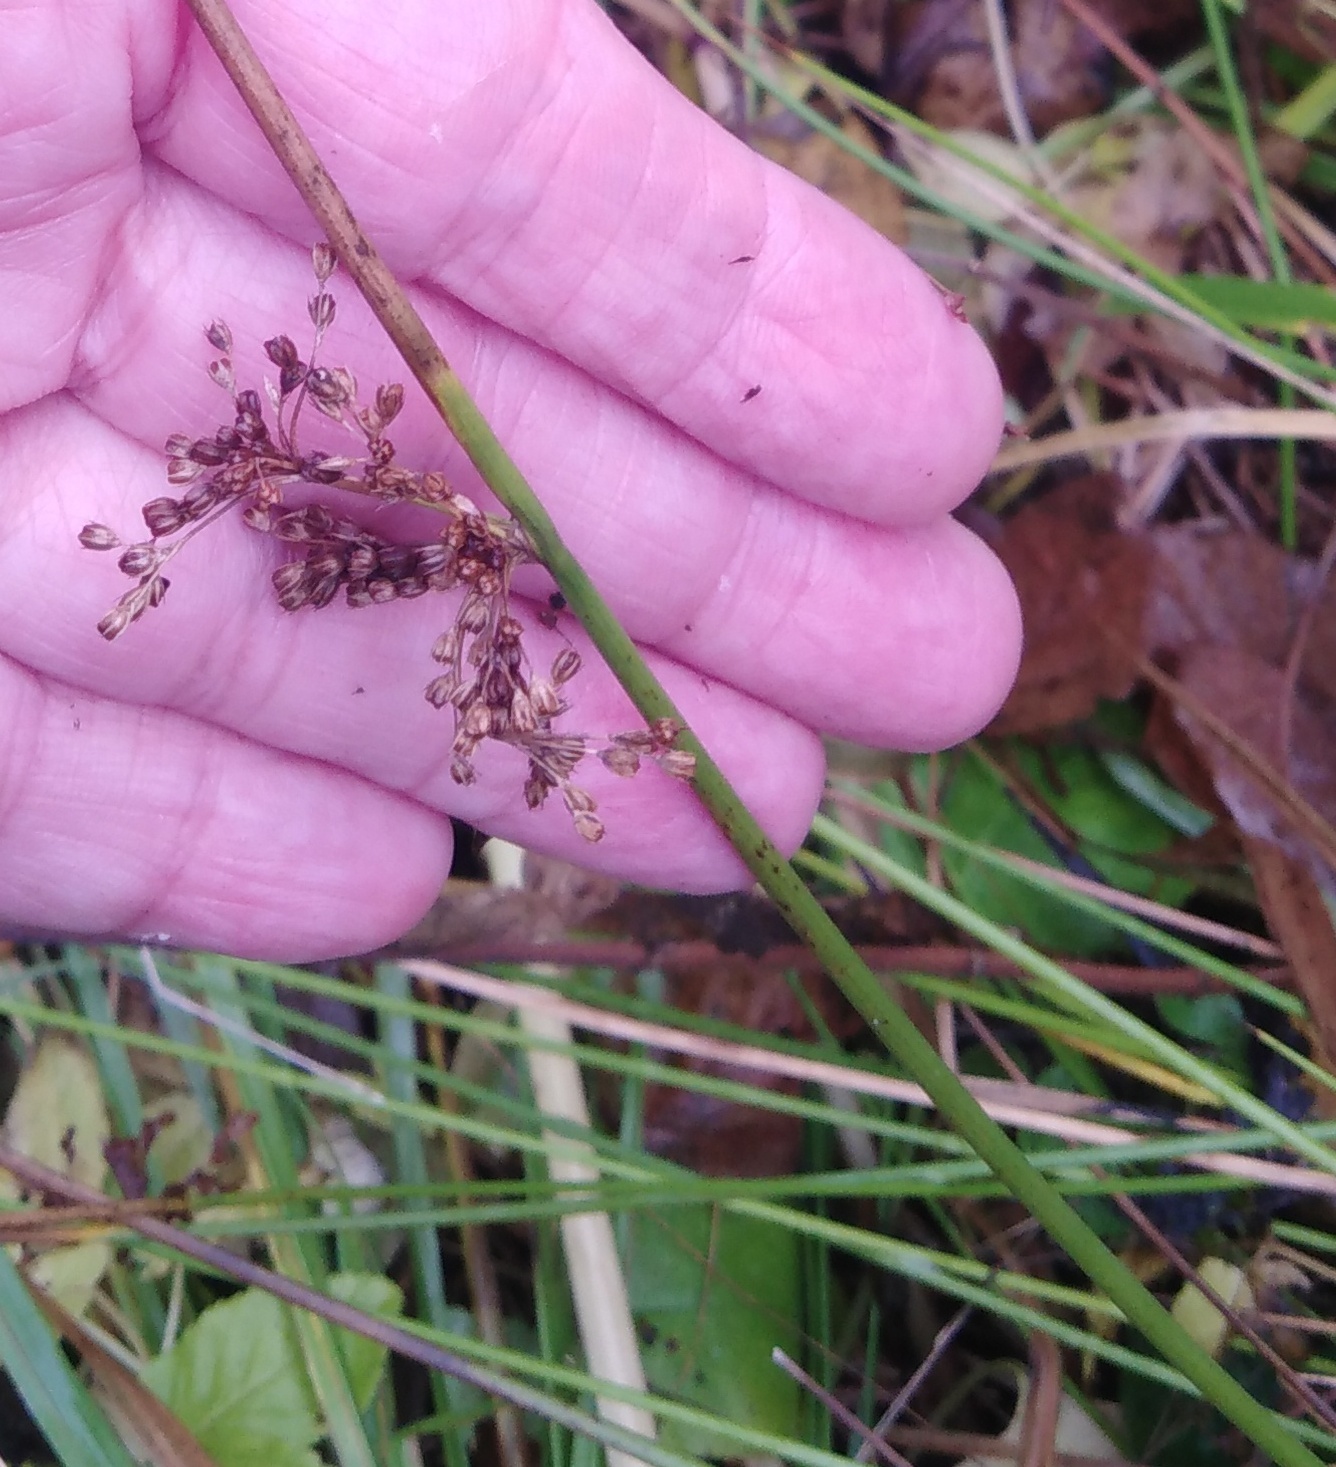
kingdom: Plantae
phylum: Tracheophyta
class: Liliopsida
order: Poales
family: Juncaceae
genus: Juncus
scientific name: Juncus effusus
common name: Soft rush
